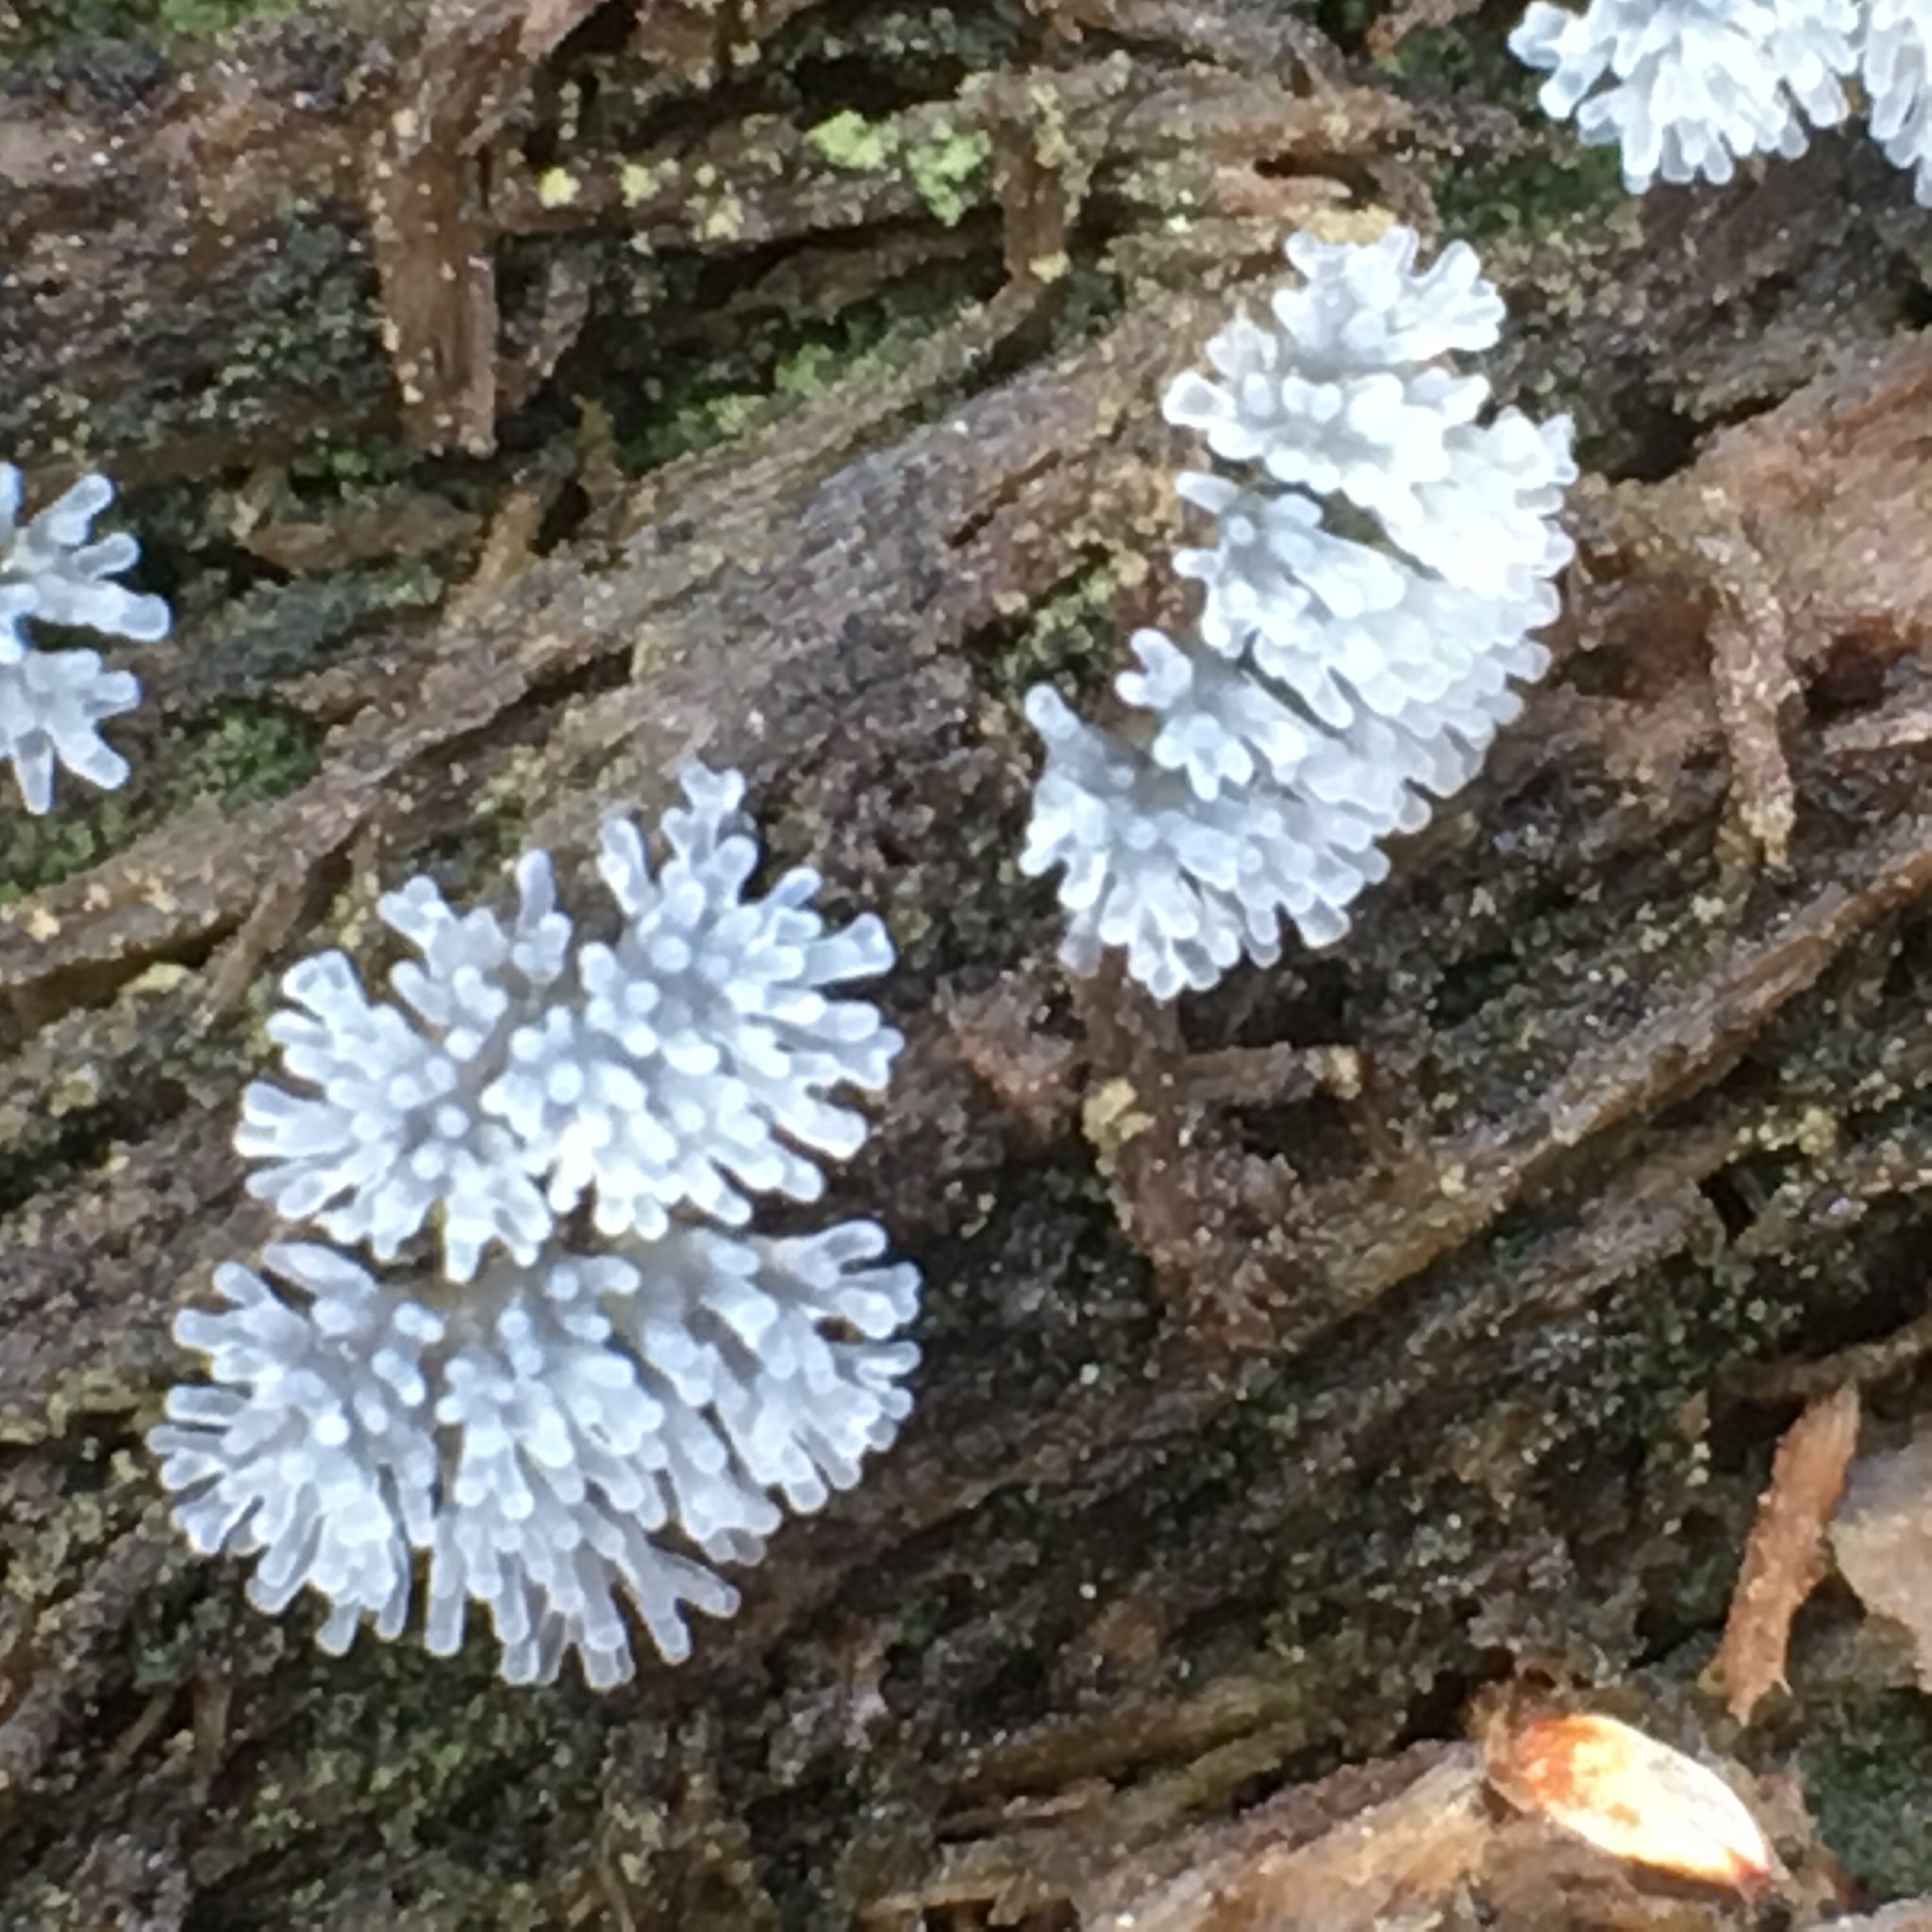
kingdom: Protozoa
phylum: Mycetozoa
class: Protosteliomycetes
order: Ceratiomyxales
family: Ceratiomyxaceae
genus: Ceratiomyxa
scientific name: Ceratiomyxa fruticulosa
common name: Honeycomb coral slime mold
